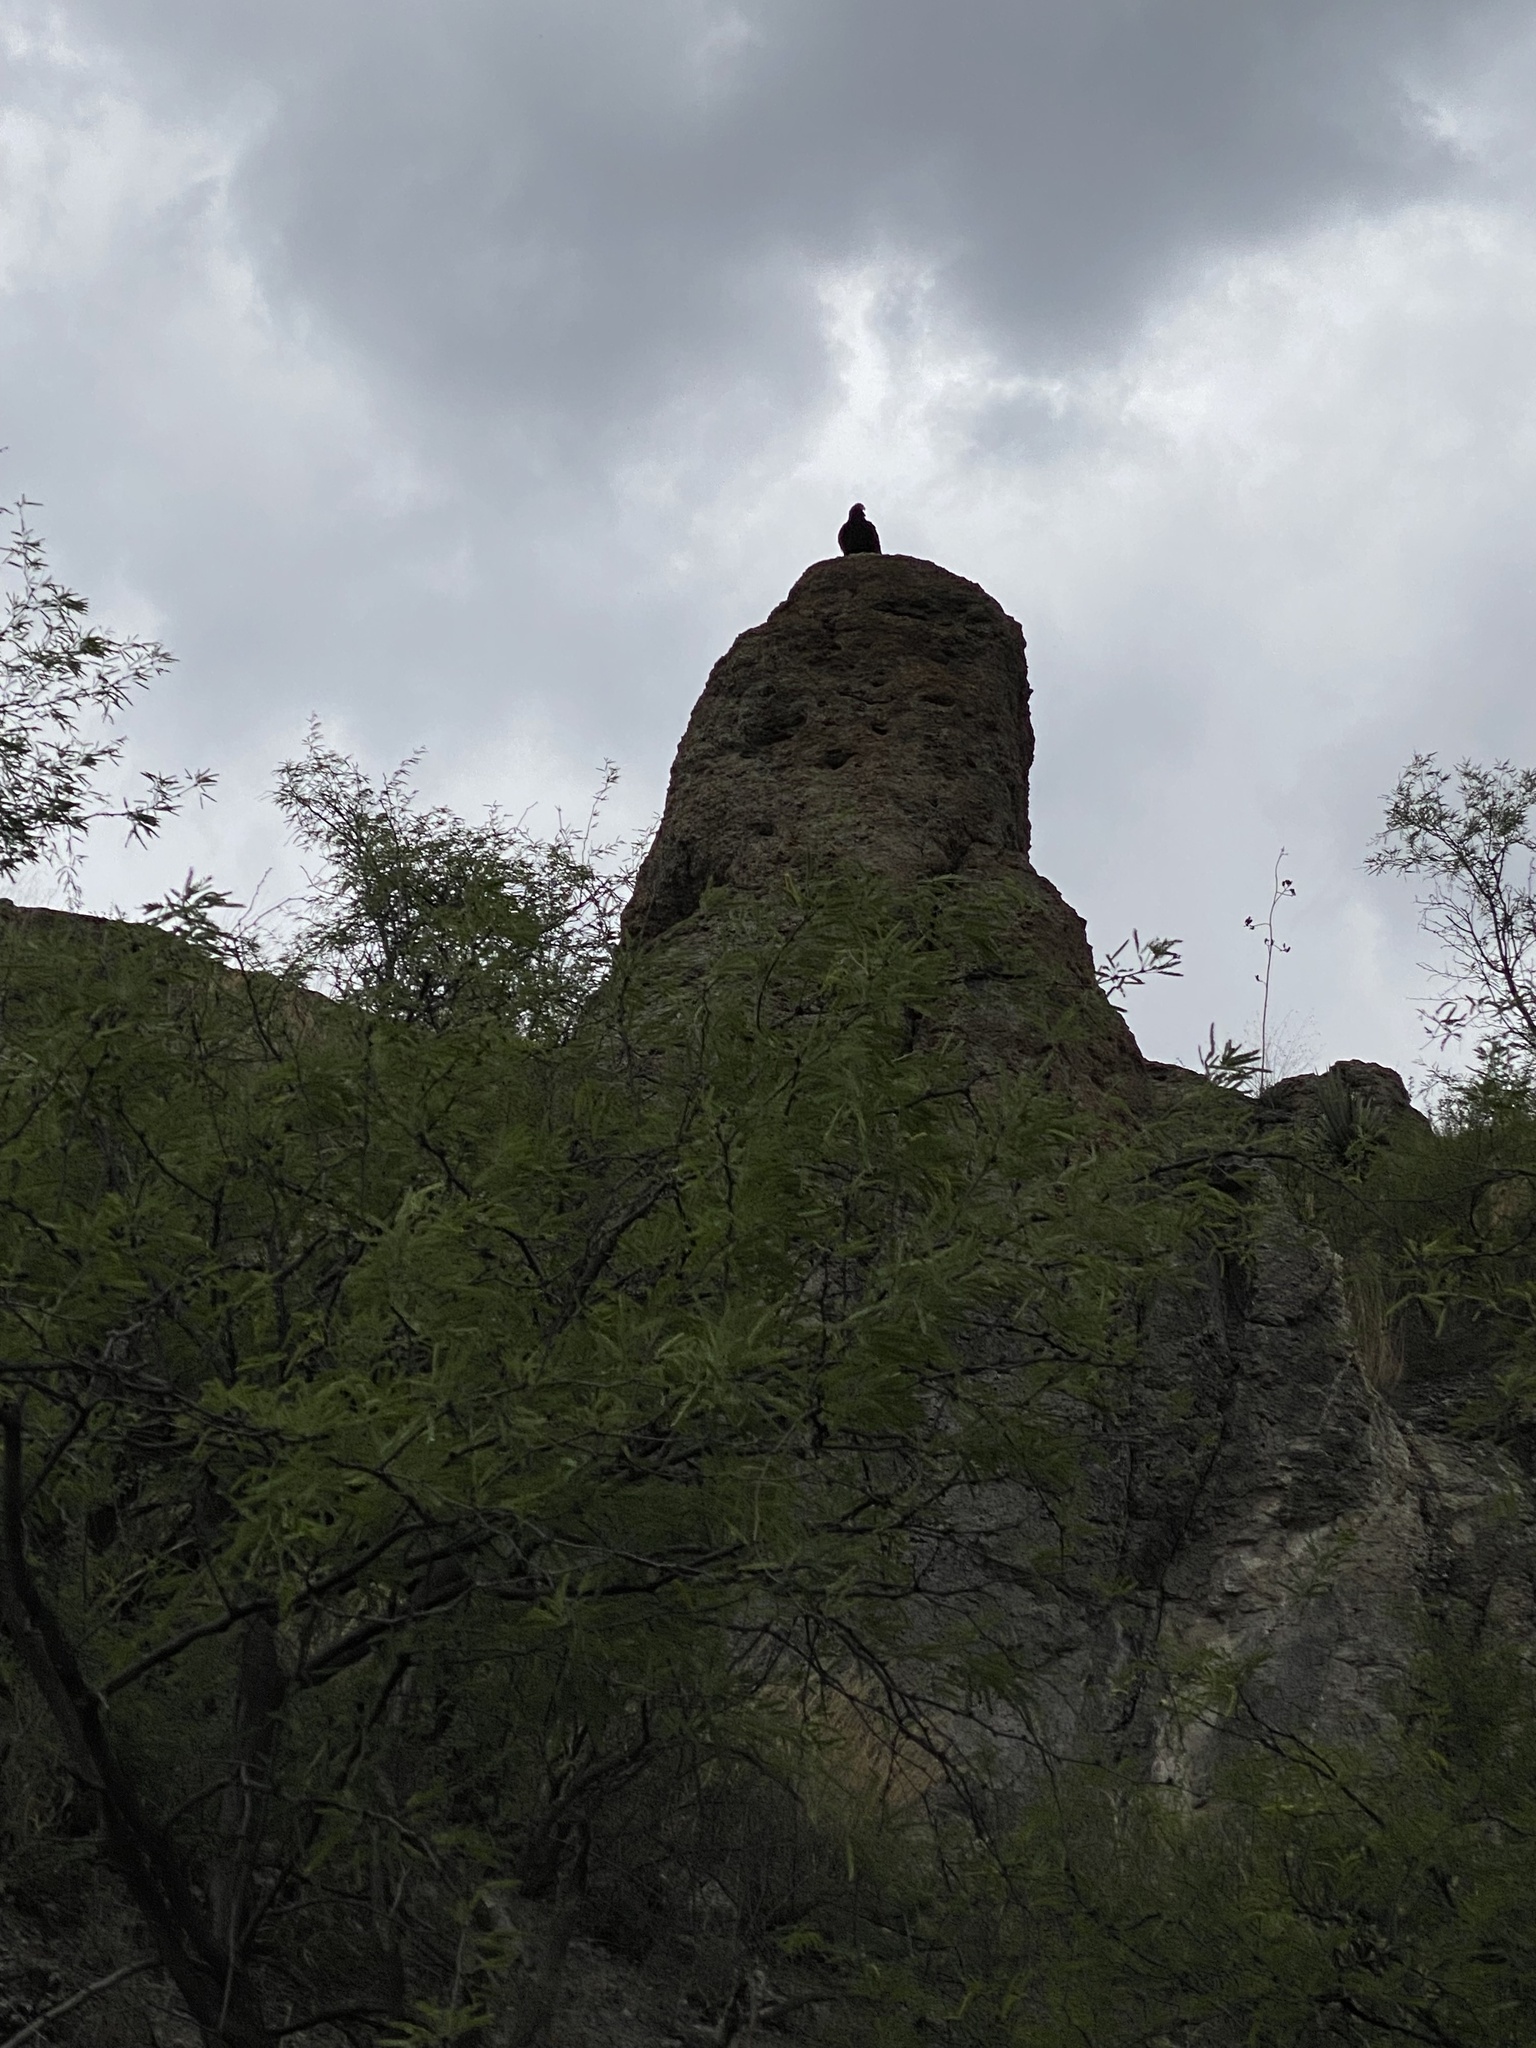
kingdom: Animalia
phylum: Chordata
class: Aves
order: Accipitriformes
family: Cathartidae
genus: Cathartes
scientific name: Cathartes aura
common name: Turkey vulture
